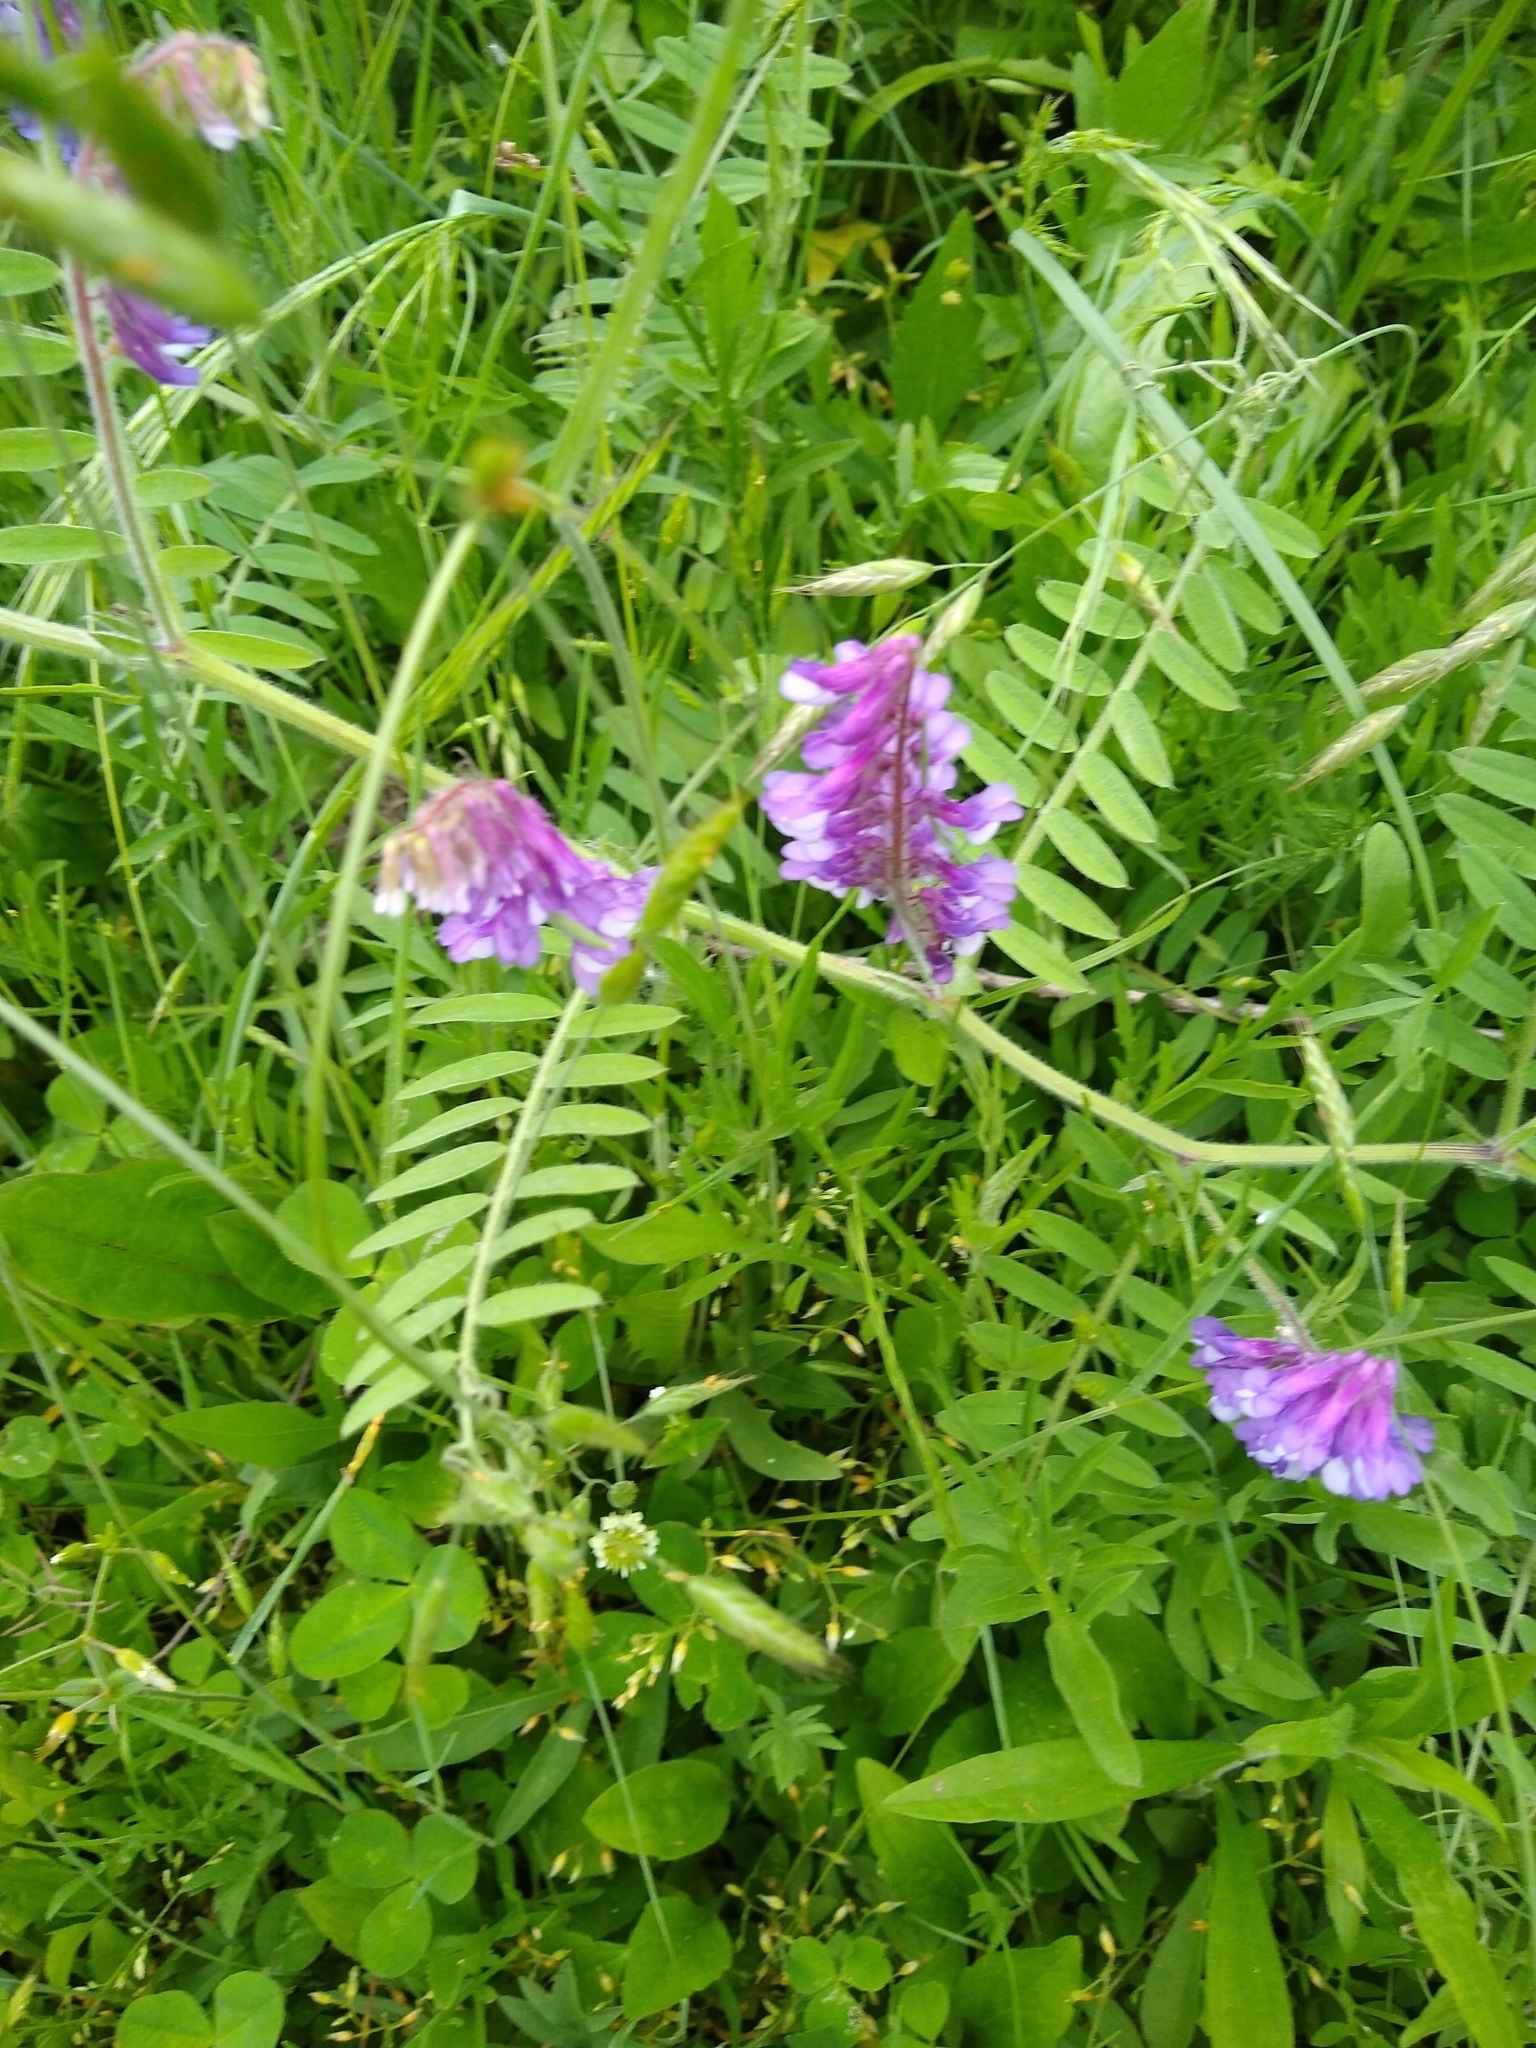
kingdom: Plantae
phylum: Tracheophyta
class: Magnoliopsida
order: Fabales
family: Fabaceae
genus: Vicia
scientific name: Vicia villosa
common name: Fodder vetch
